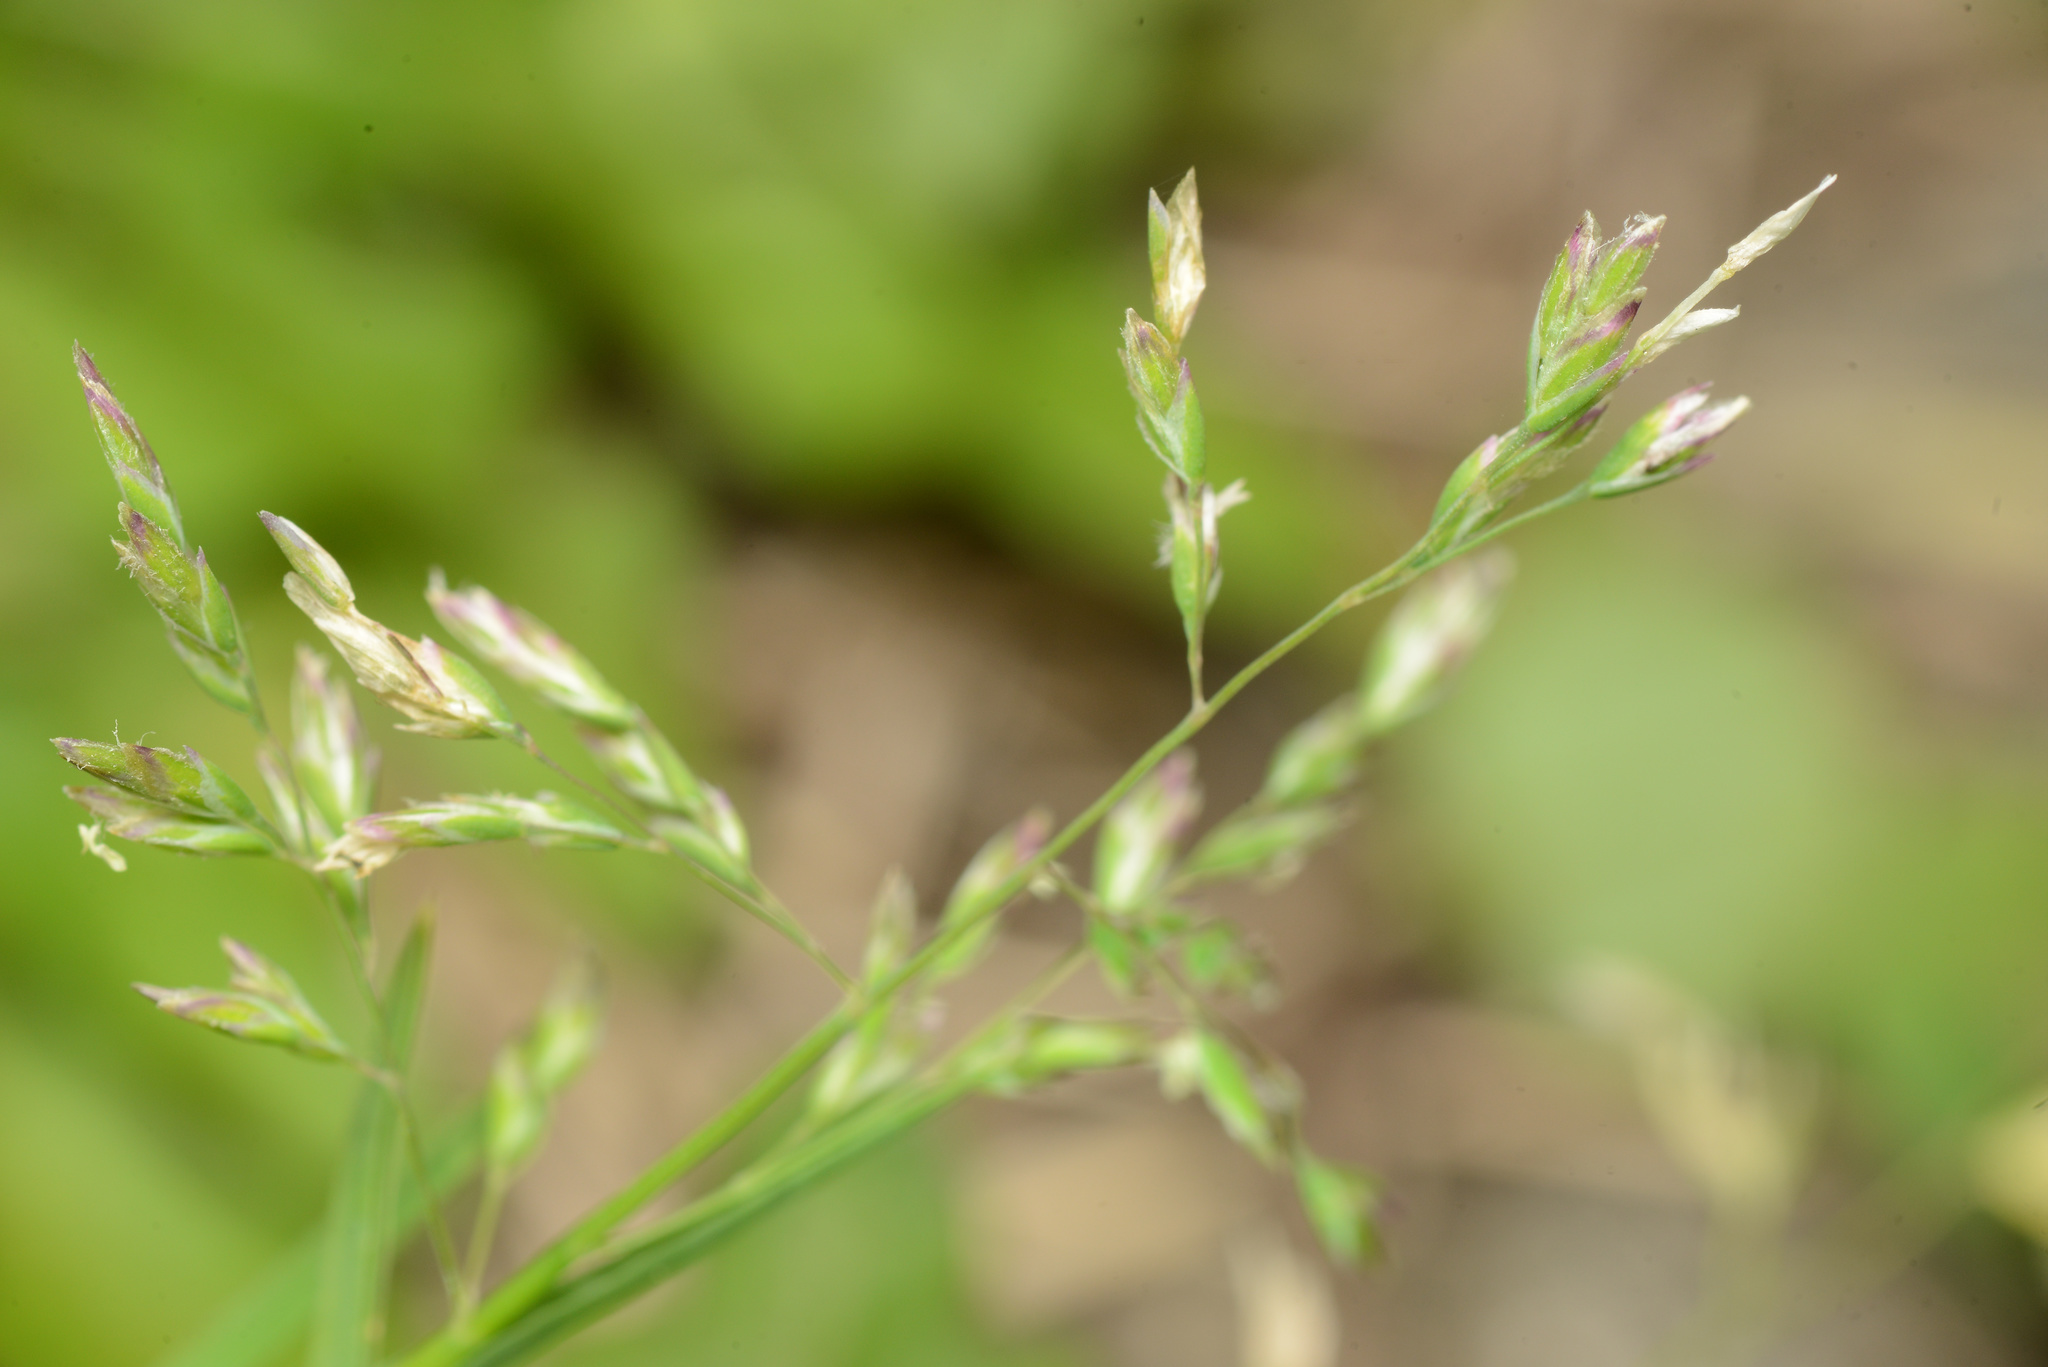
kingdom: Plantae
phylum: Tracheophyta
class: Liliopsida
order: Poales
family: Poaceae
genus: Poa
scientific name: Poa annua
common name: Annual bluegrass
